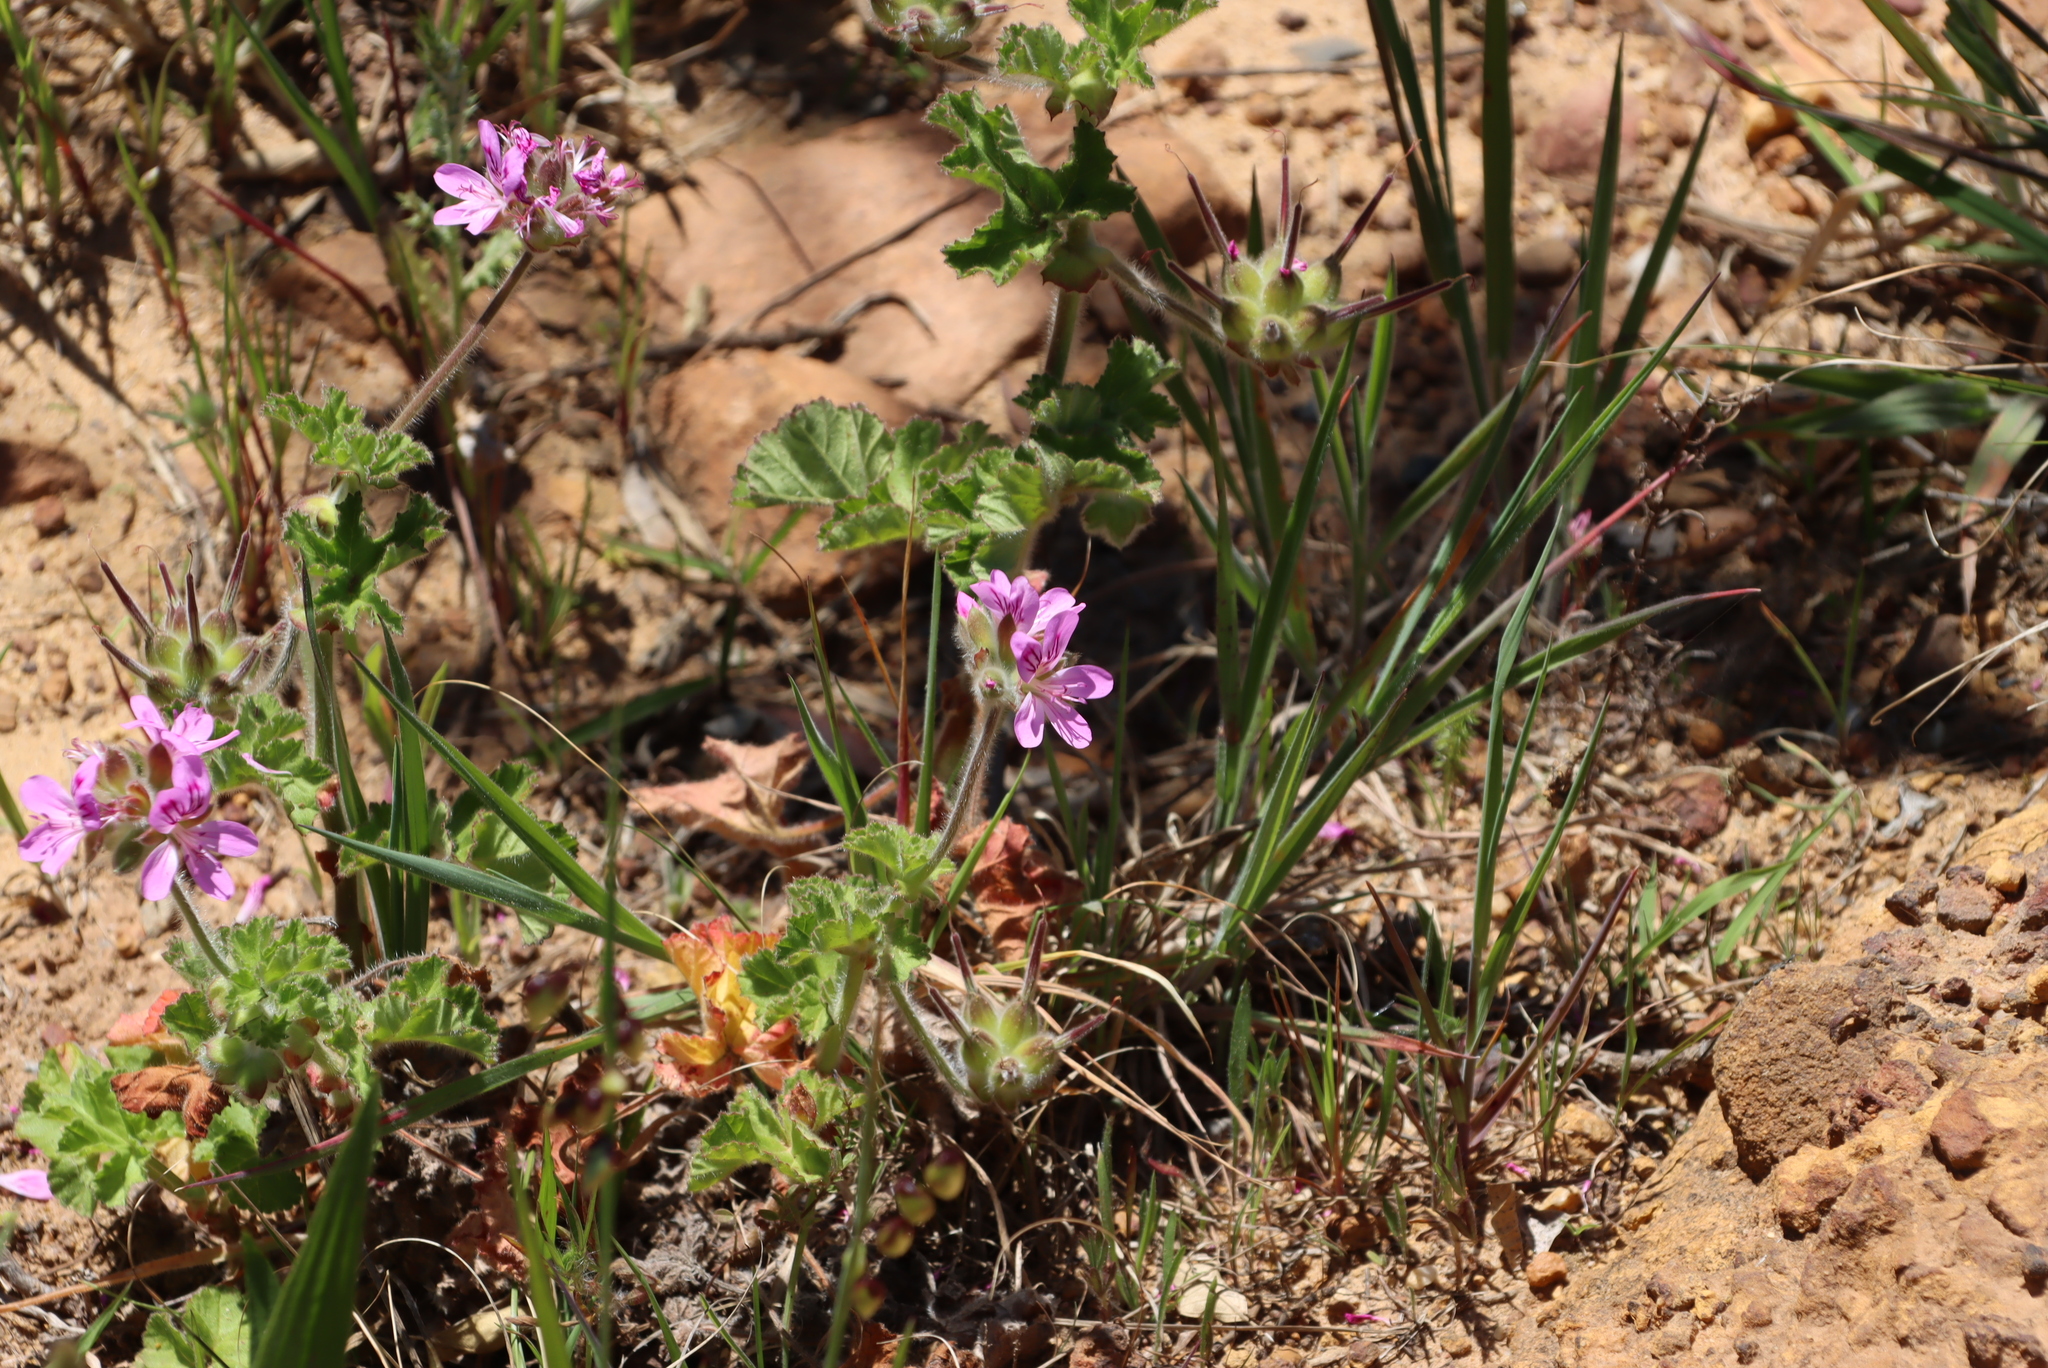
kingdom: Plantae
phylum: Tracheophyta
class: Magnoliopsida
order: Geraniales
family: Geraniaceae
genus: Pelargonium
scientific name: Pelargonium capitatum
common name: Rose scented geranium
